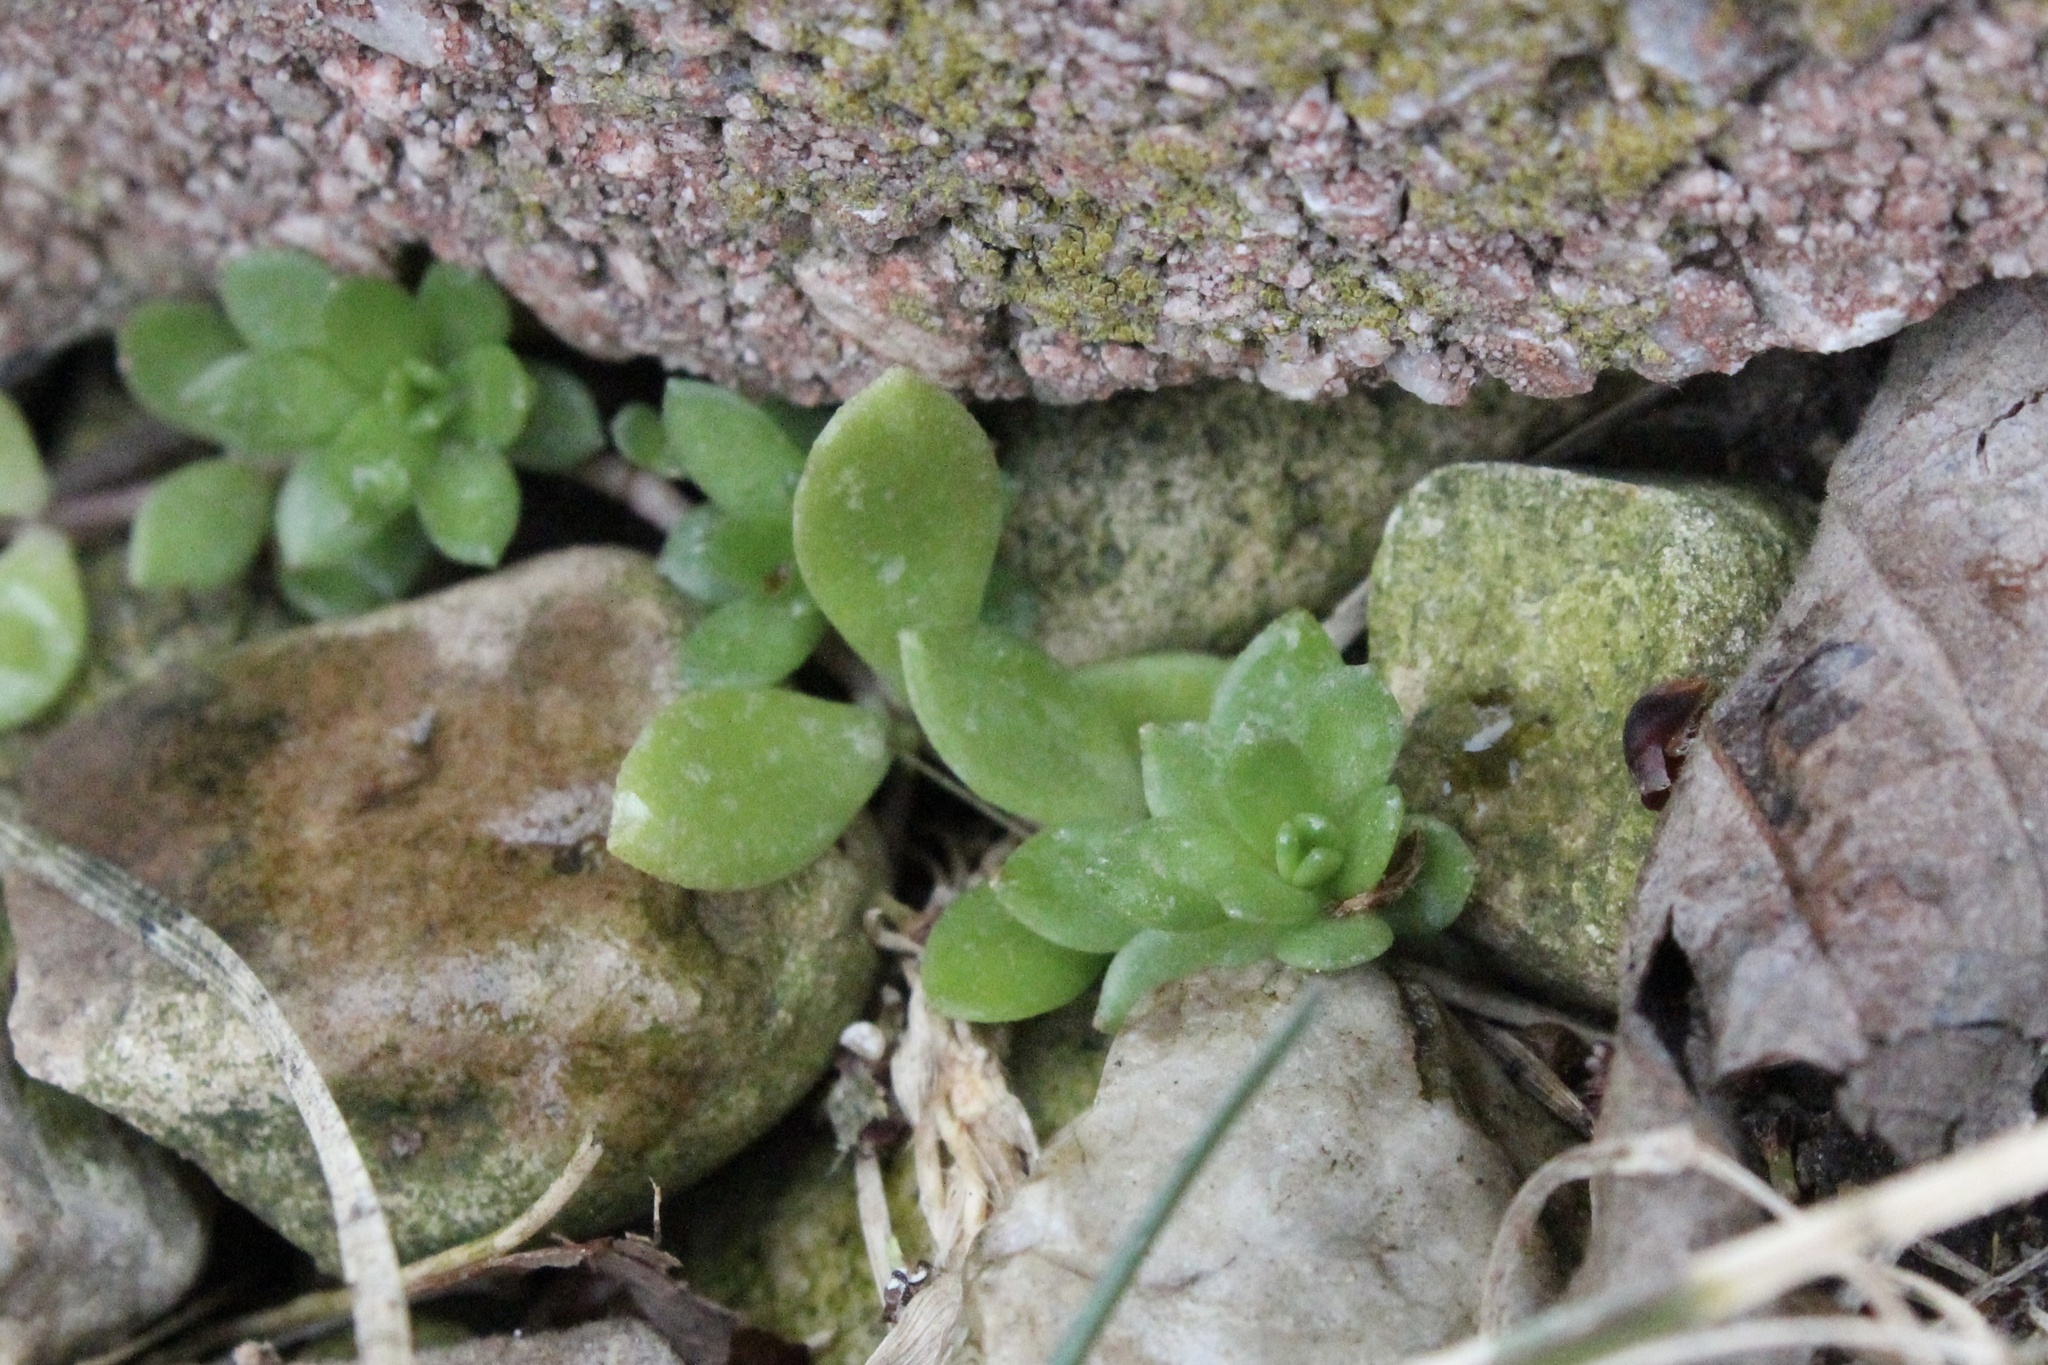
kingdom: Plantae
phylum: Tracheophyta
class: Magnoliopsida
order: Saxifragales
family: Crassulaceae
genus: Sedum
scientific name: Sedum sarmentosum
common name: Stringy stonecrop
